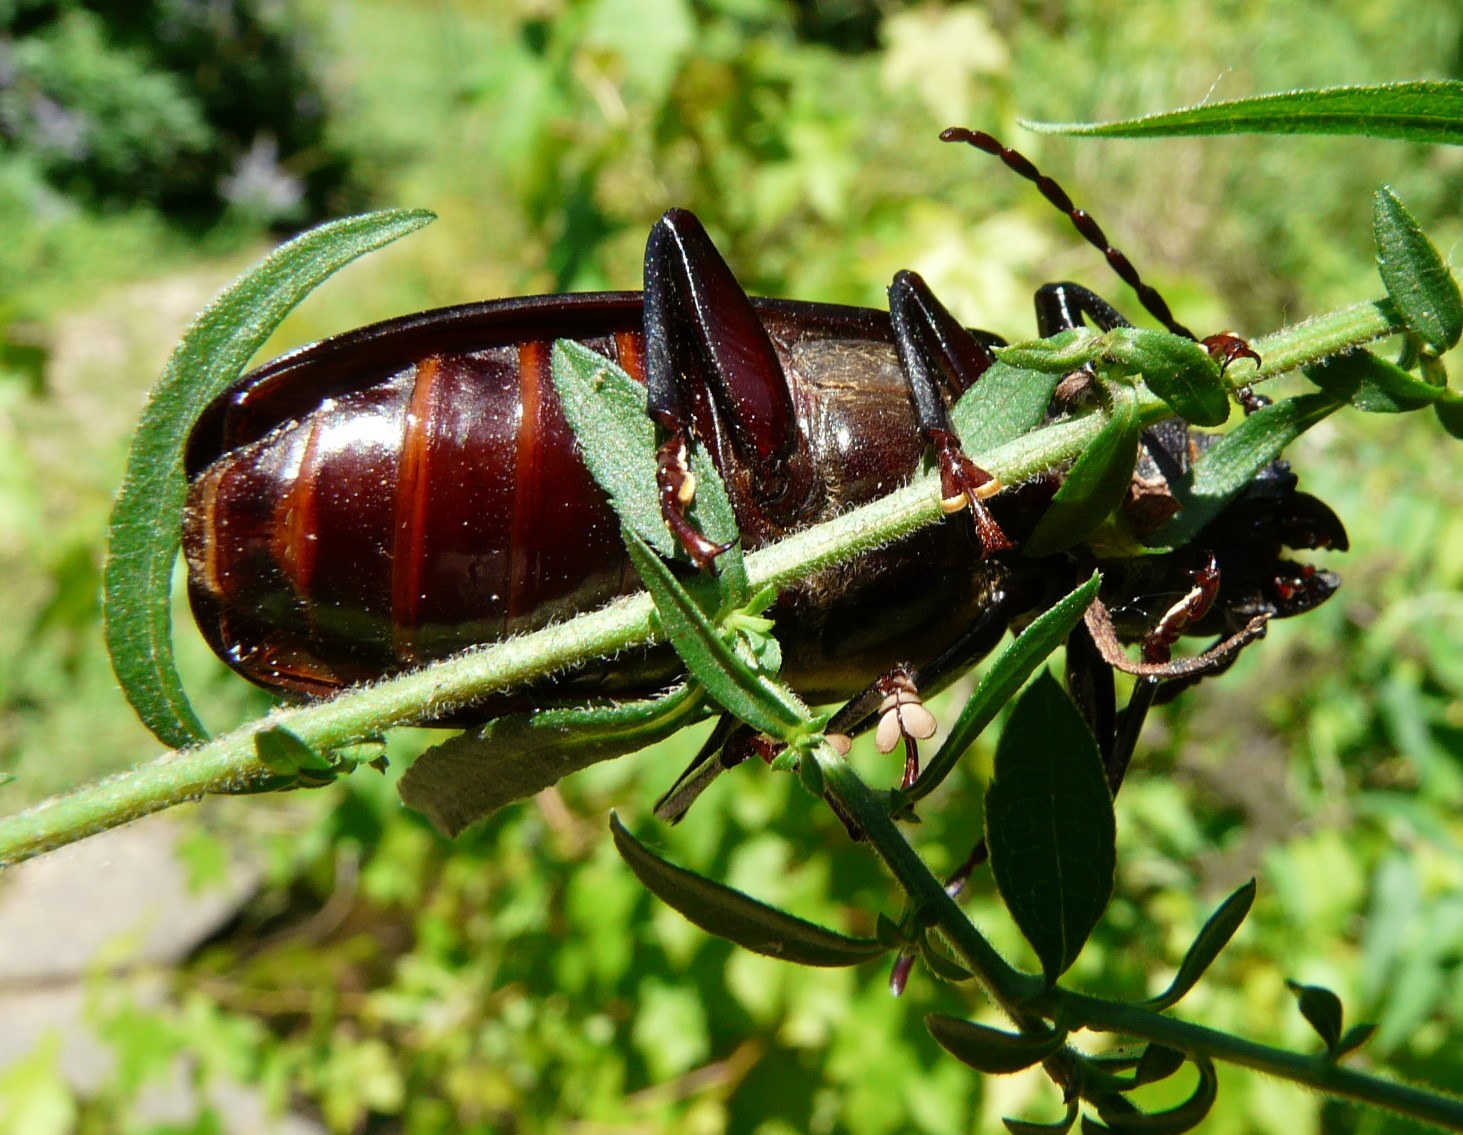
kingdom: Animalia
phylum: Arthropoda
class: Insecta
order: Coleoptera
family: Cerambycidae
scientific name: Cerambycidae
